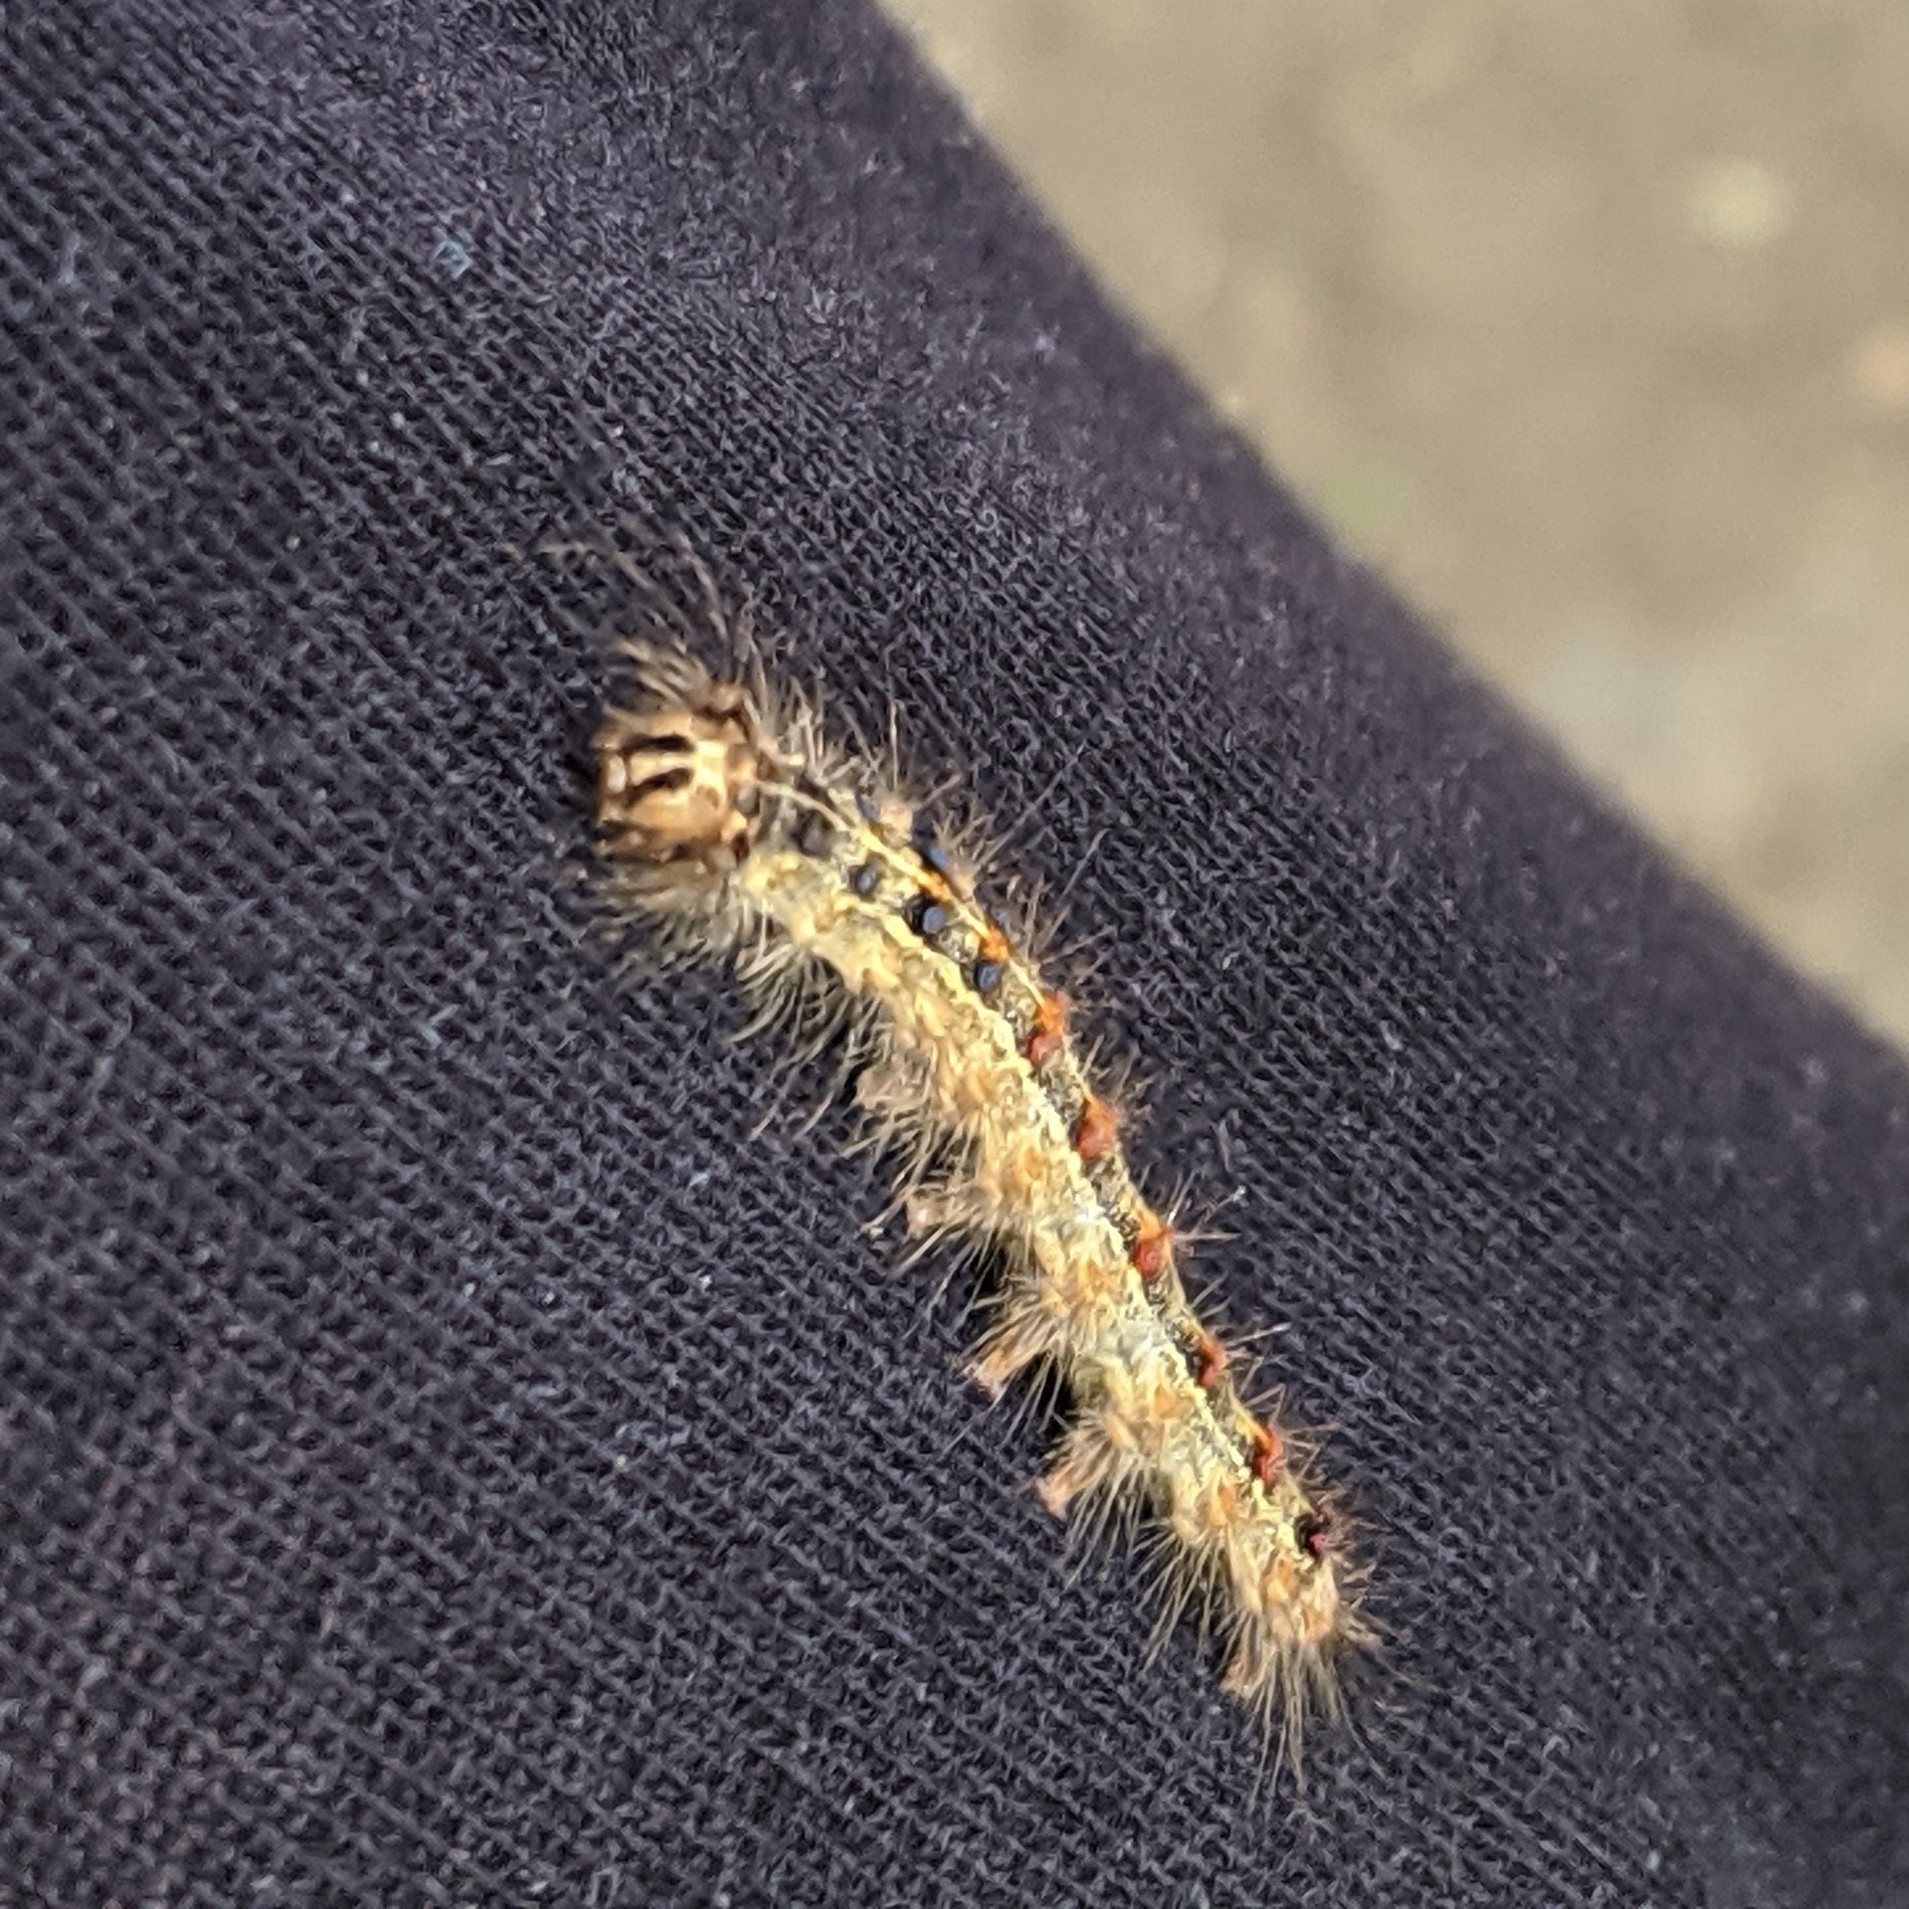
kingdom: Animalia
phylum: Arthropoda
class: Insecta
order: Lepidoptera
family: Erebidae
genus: Lymantria
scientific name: Lymantria dispar
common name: Gypsy moth
